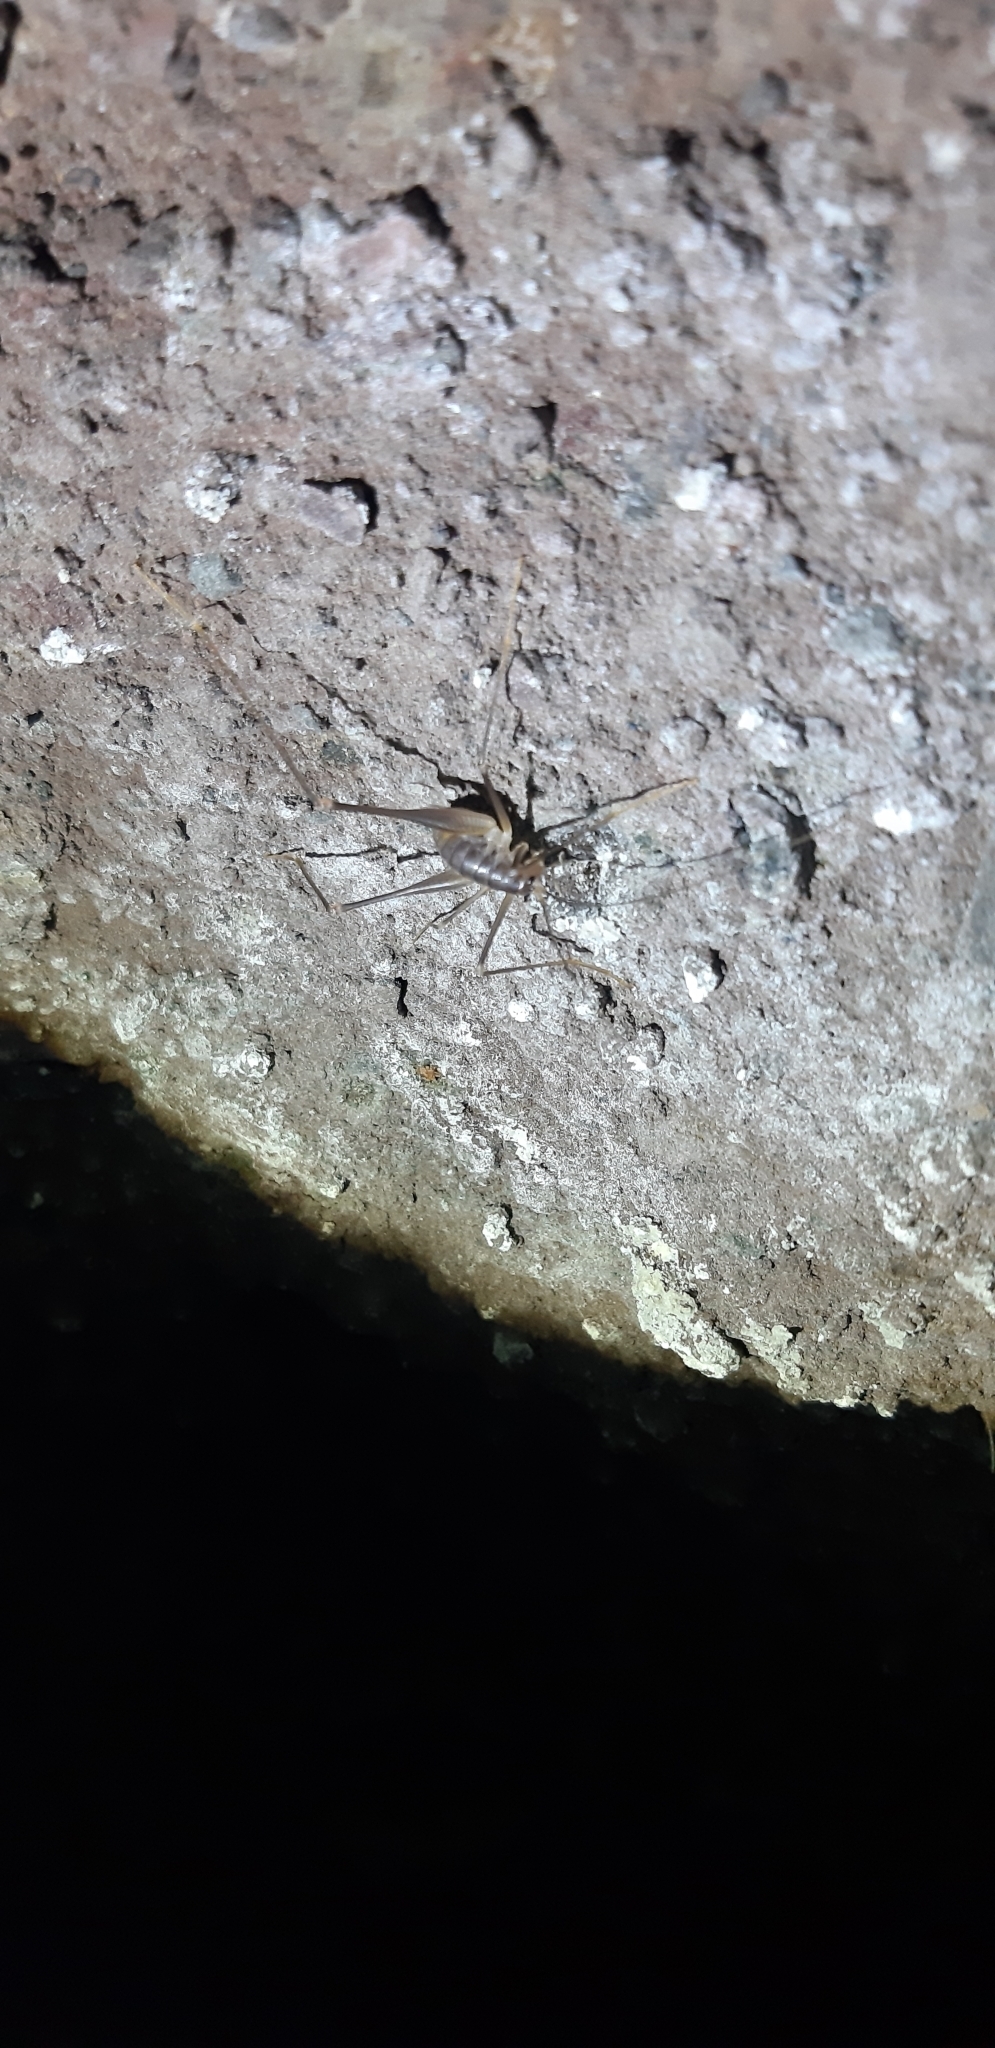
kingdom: Animalia
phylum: Arthropoda
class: Insecta
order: Orthoptera
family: Rhaphidophoridae
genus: Dolichopoda
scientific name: Dolichopoda geniculata
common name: Bended cave-cricket
